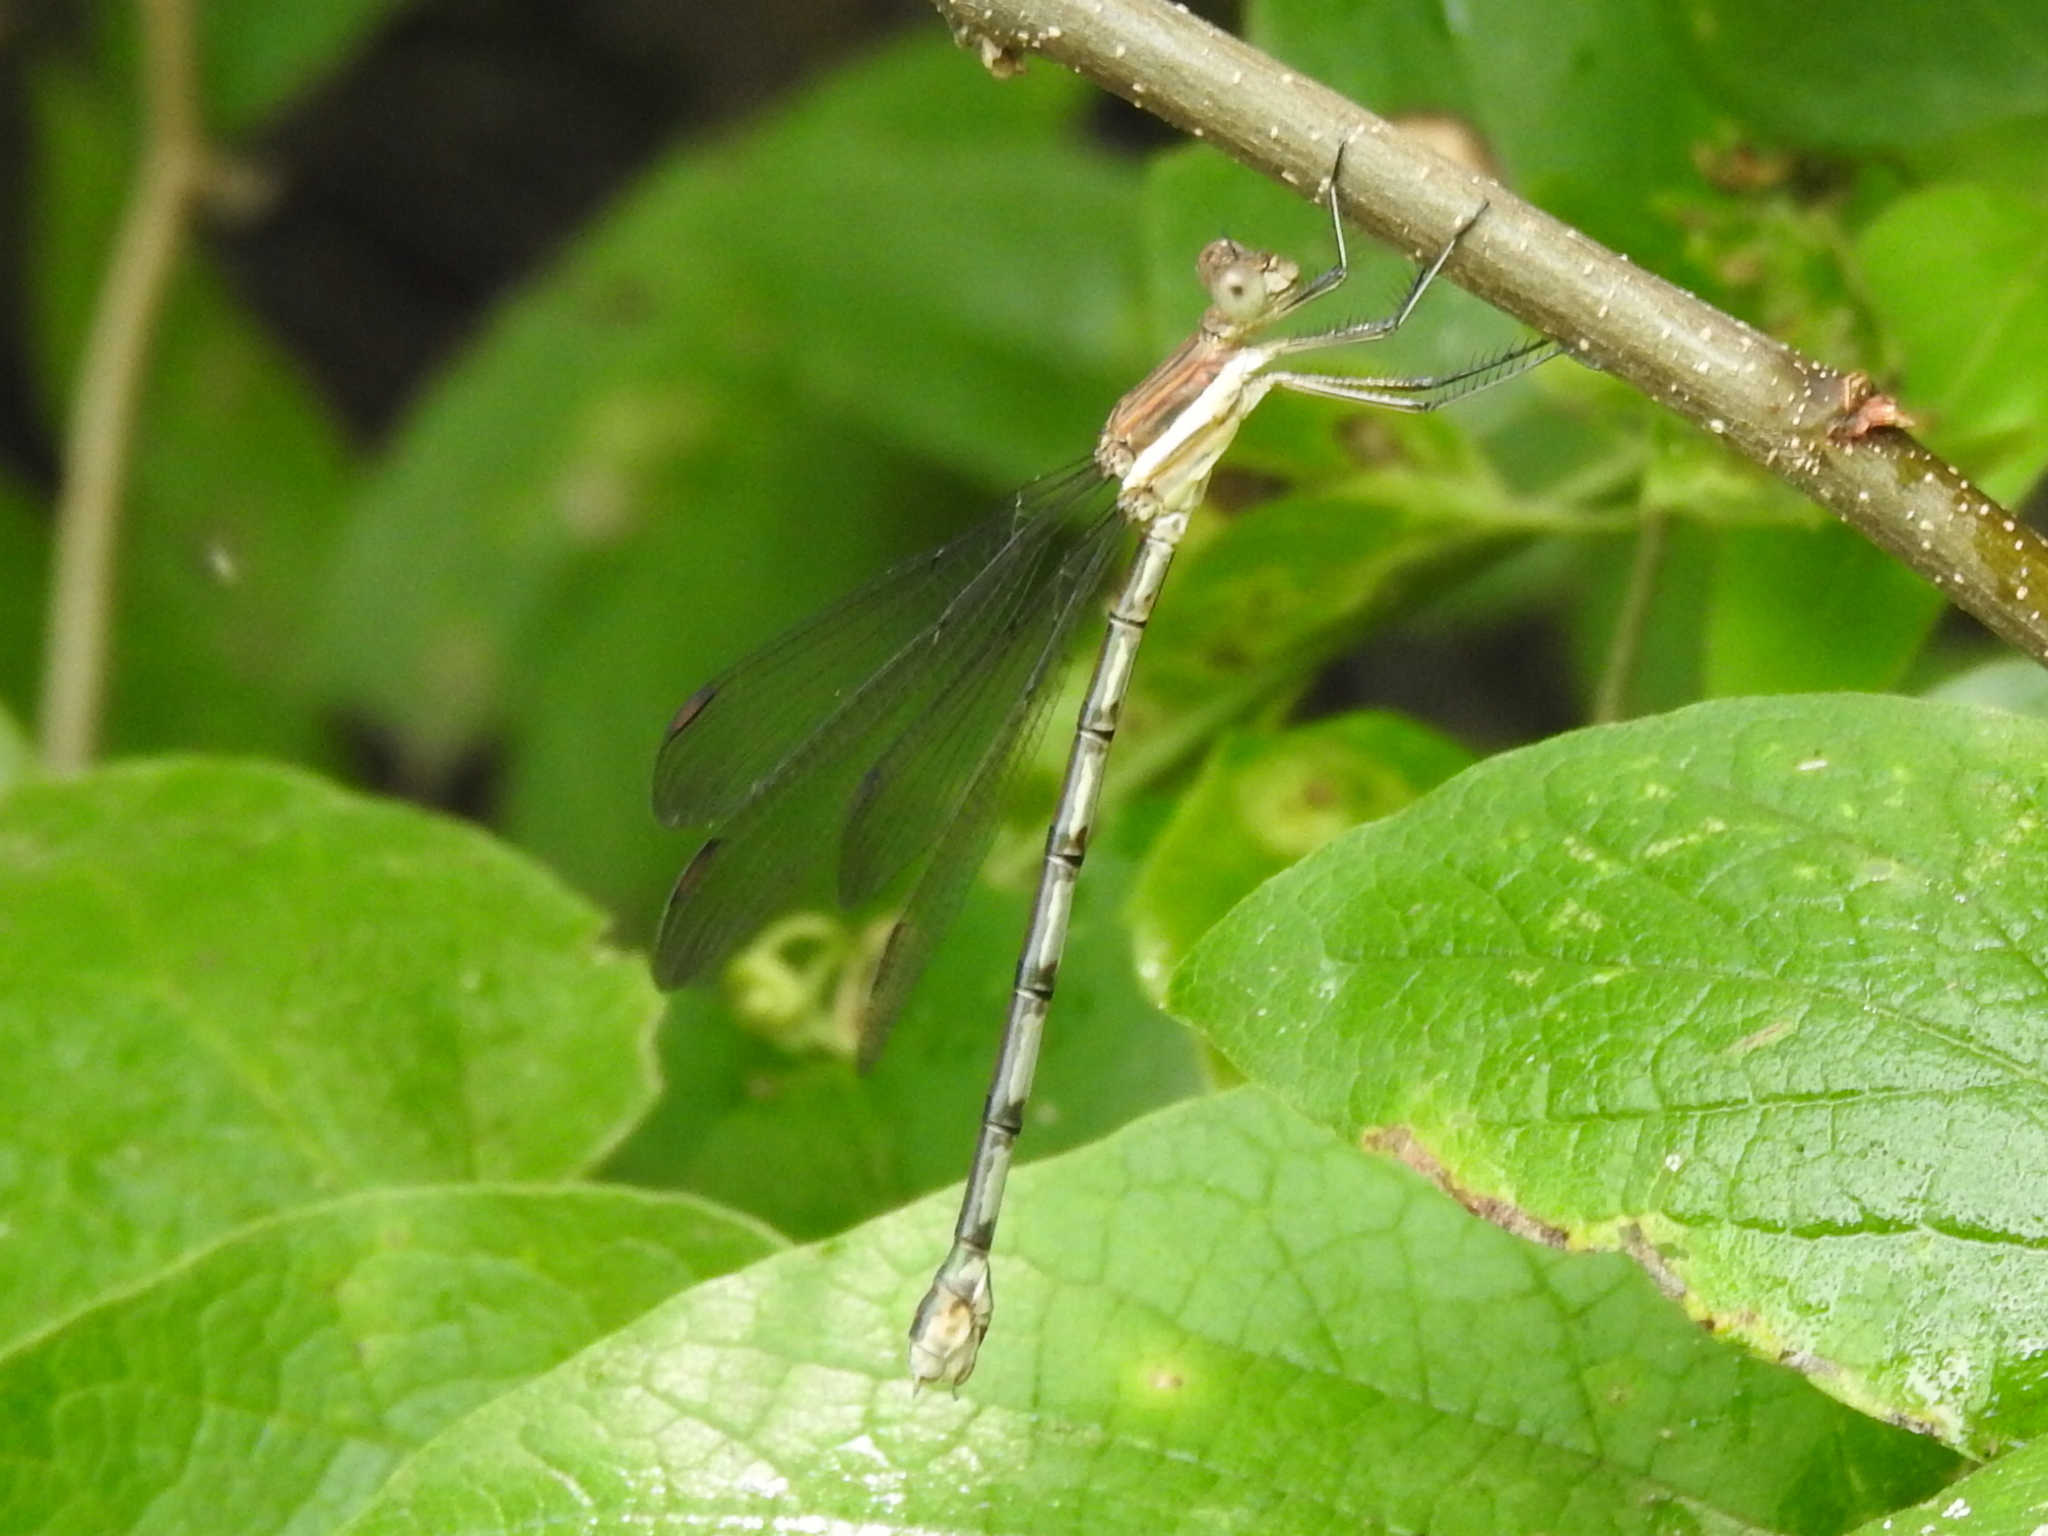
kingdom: Animalia
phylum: Arthropoda
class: Insecta
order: Odonata
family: Lestidae
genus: Archilestes
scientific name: Archilestes grandis
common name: Great spreadwing
